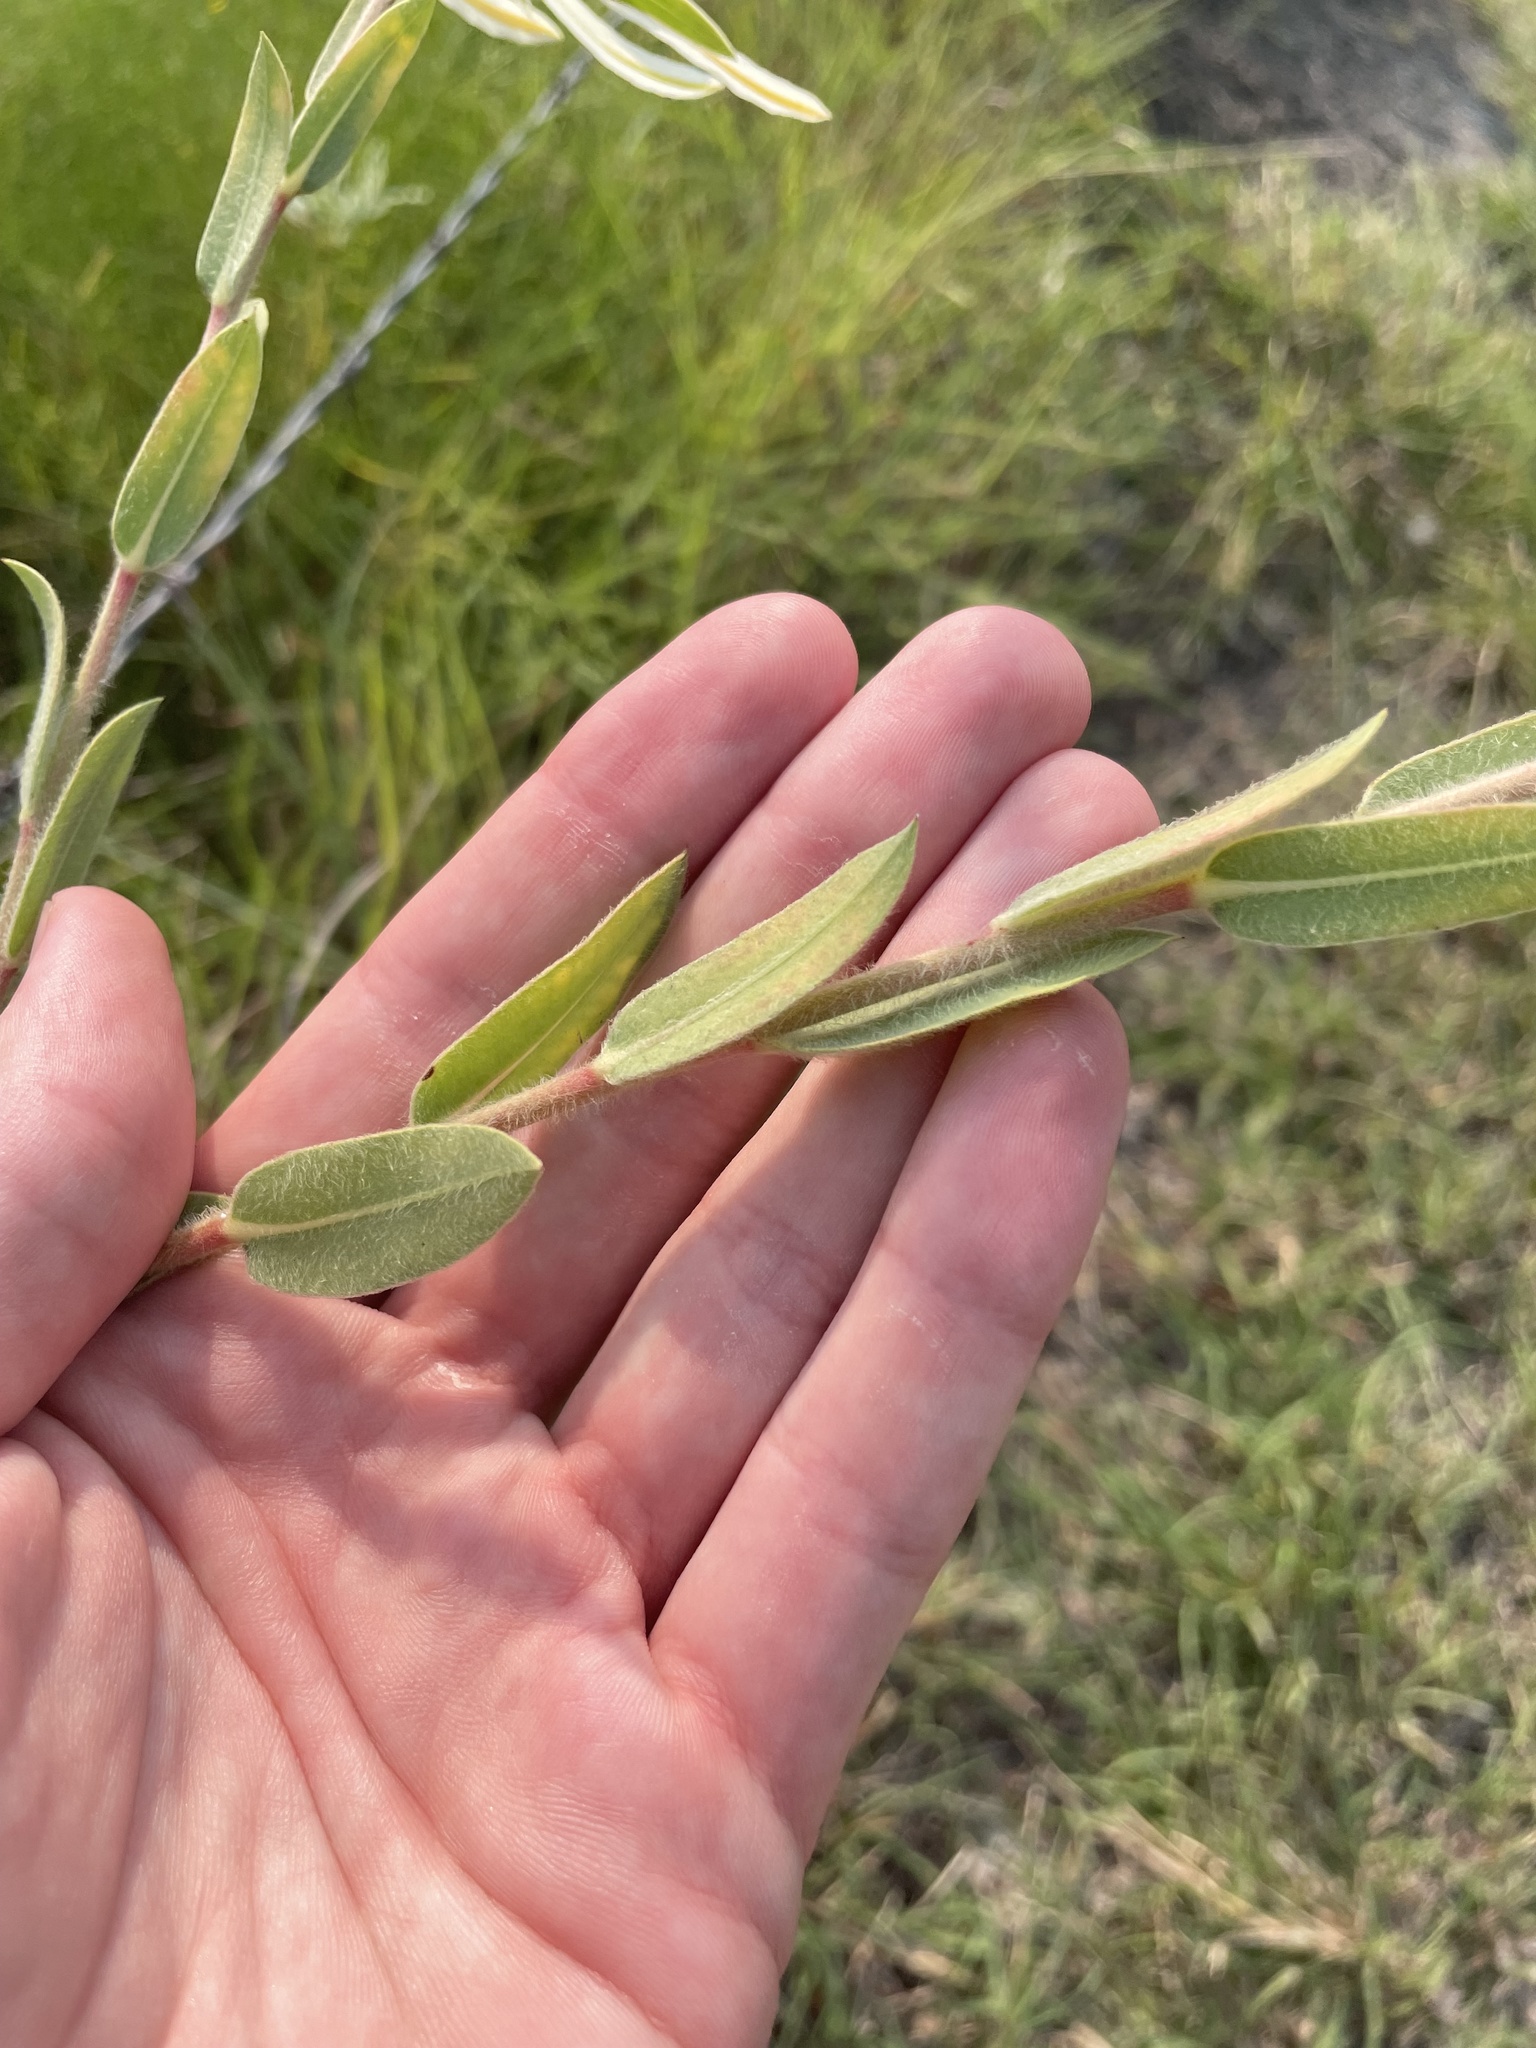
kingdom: Plantae
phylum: Tracheophyta
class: Magnoliopsida
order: Malpighiales
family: Euphorbiaceae
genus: Euphorbia
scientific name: Euphorbia bicolor
